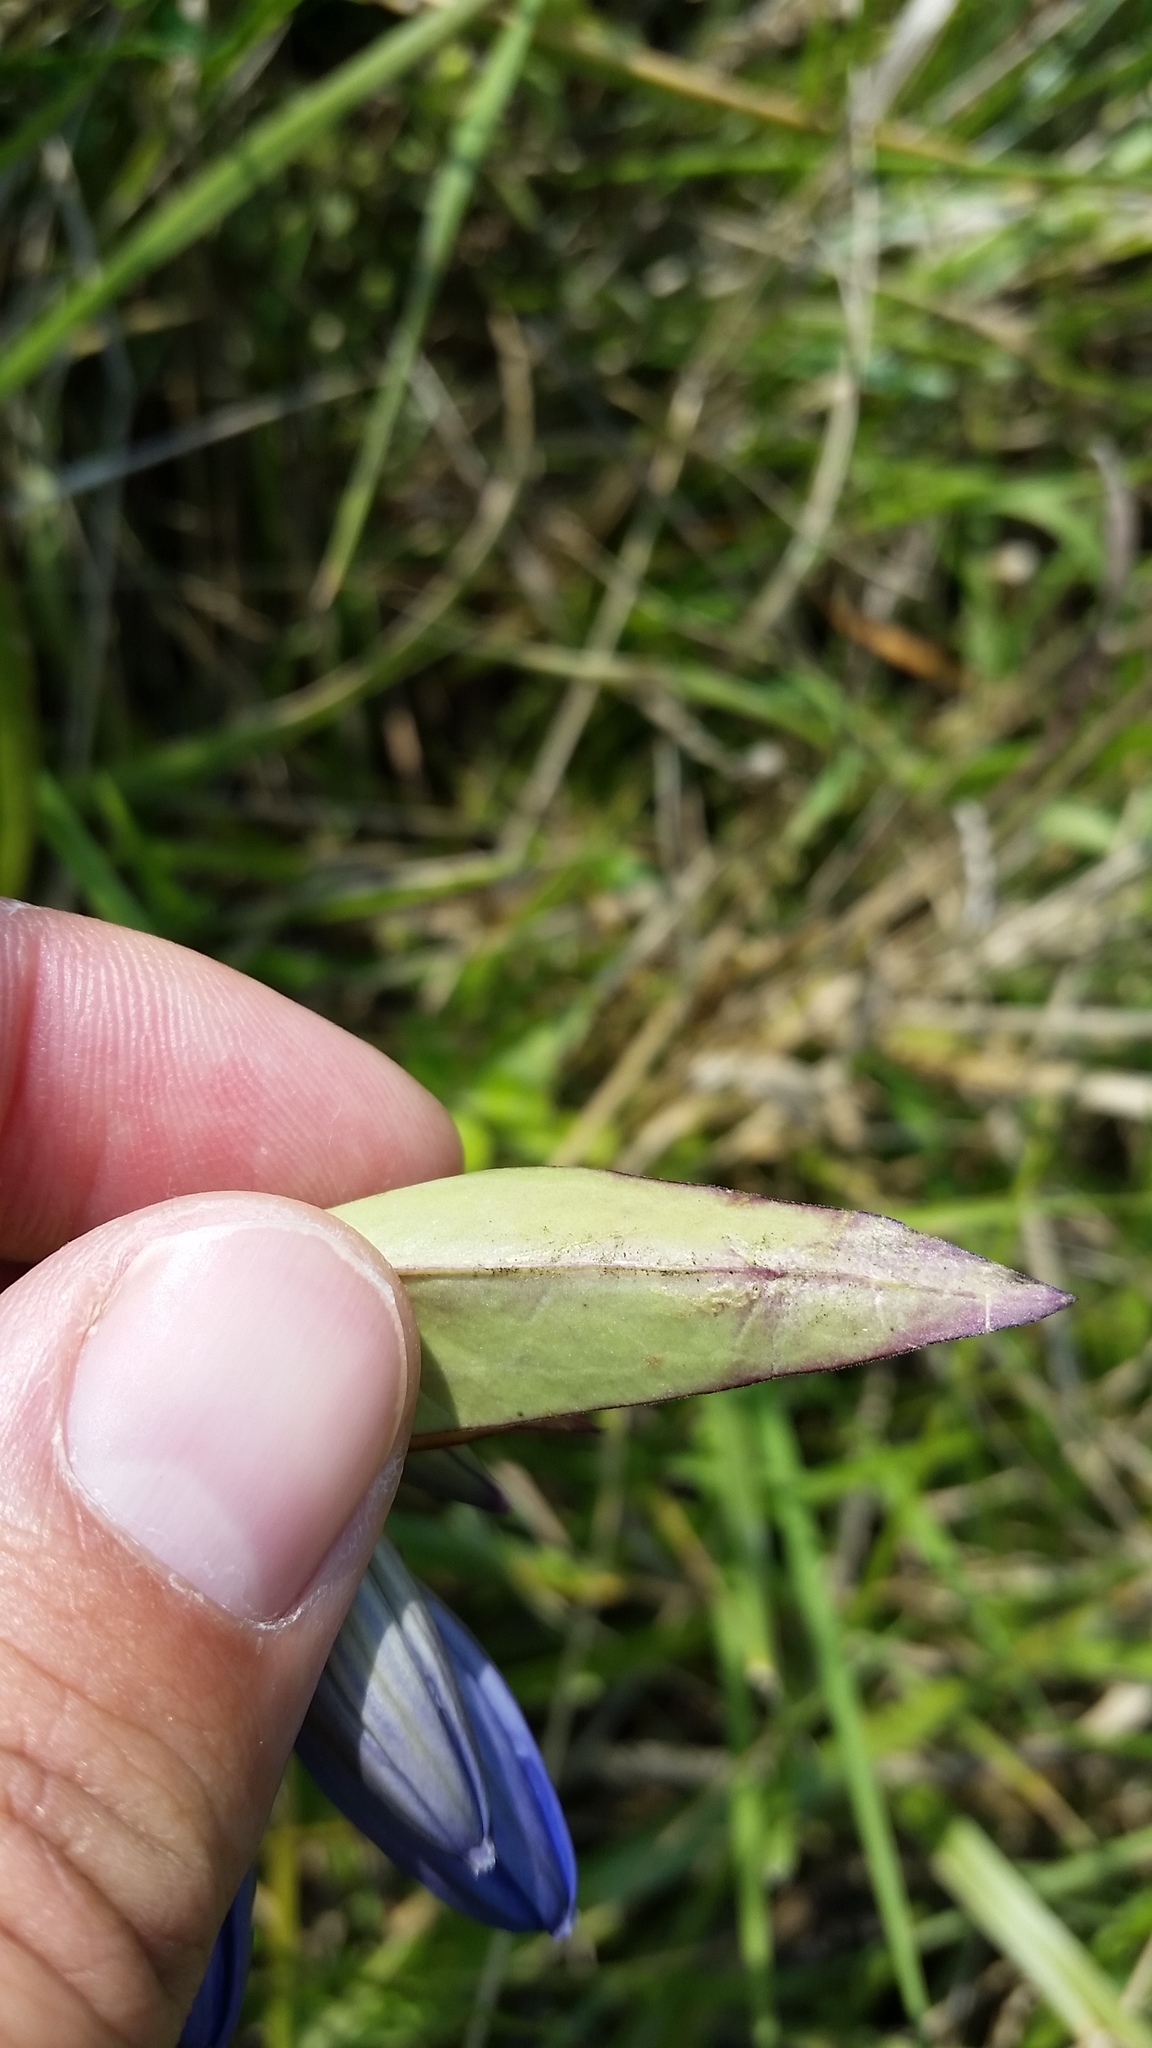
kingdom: Plantae
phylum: Tracheophyta
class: Magnoliopsida
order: Gentianales
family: Gentianaceae
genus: Gentiana
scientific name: Gentiana andrewsii
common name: Bottle gentian
